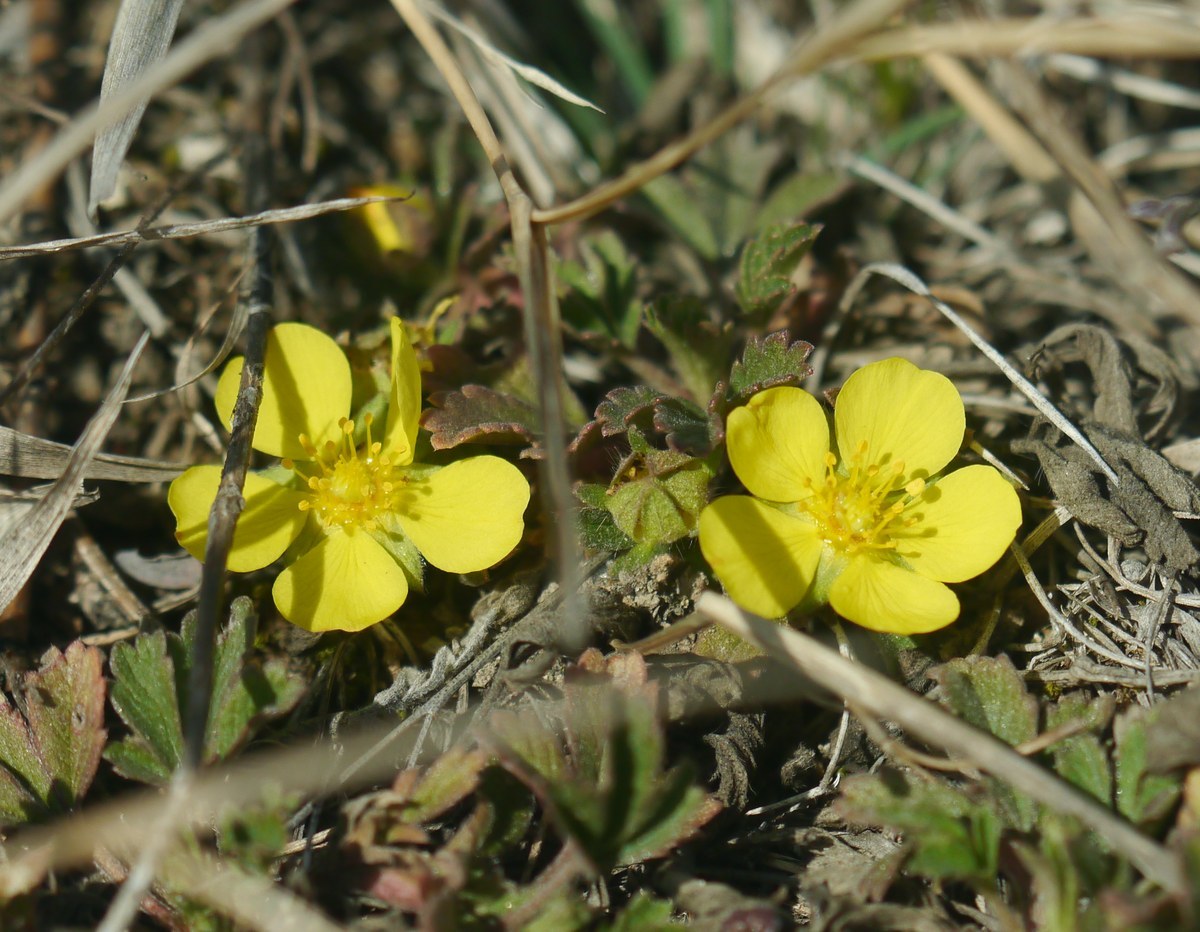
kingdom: Plantae
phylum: Tracheophyta
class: Magnoliopsida
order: Rosales
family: Rosaceae
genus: Potentilla
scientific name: Potentilla incana
